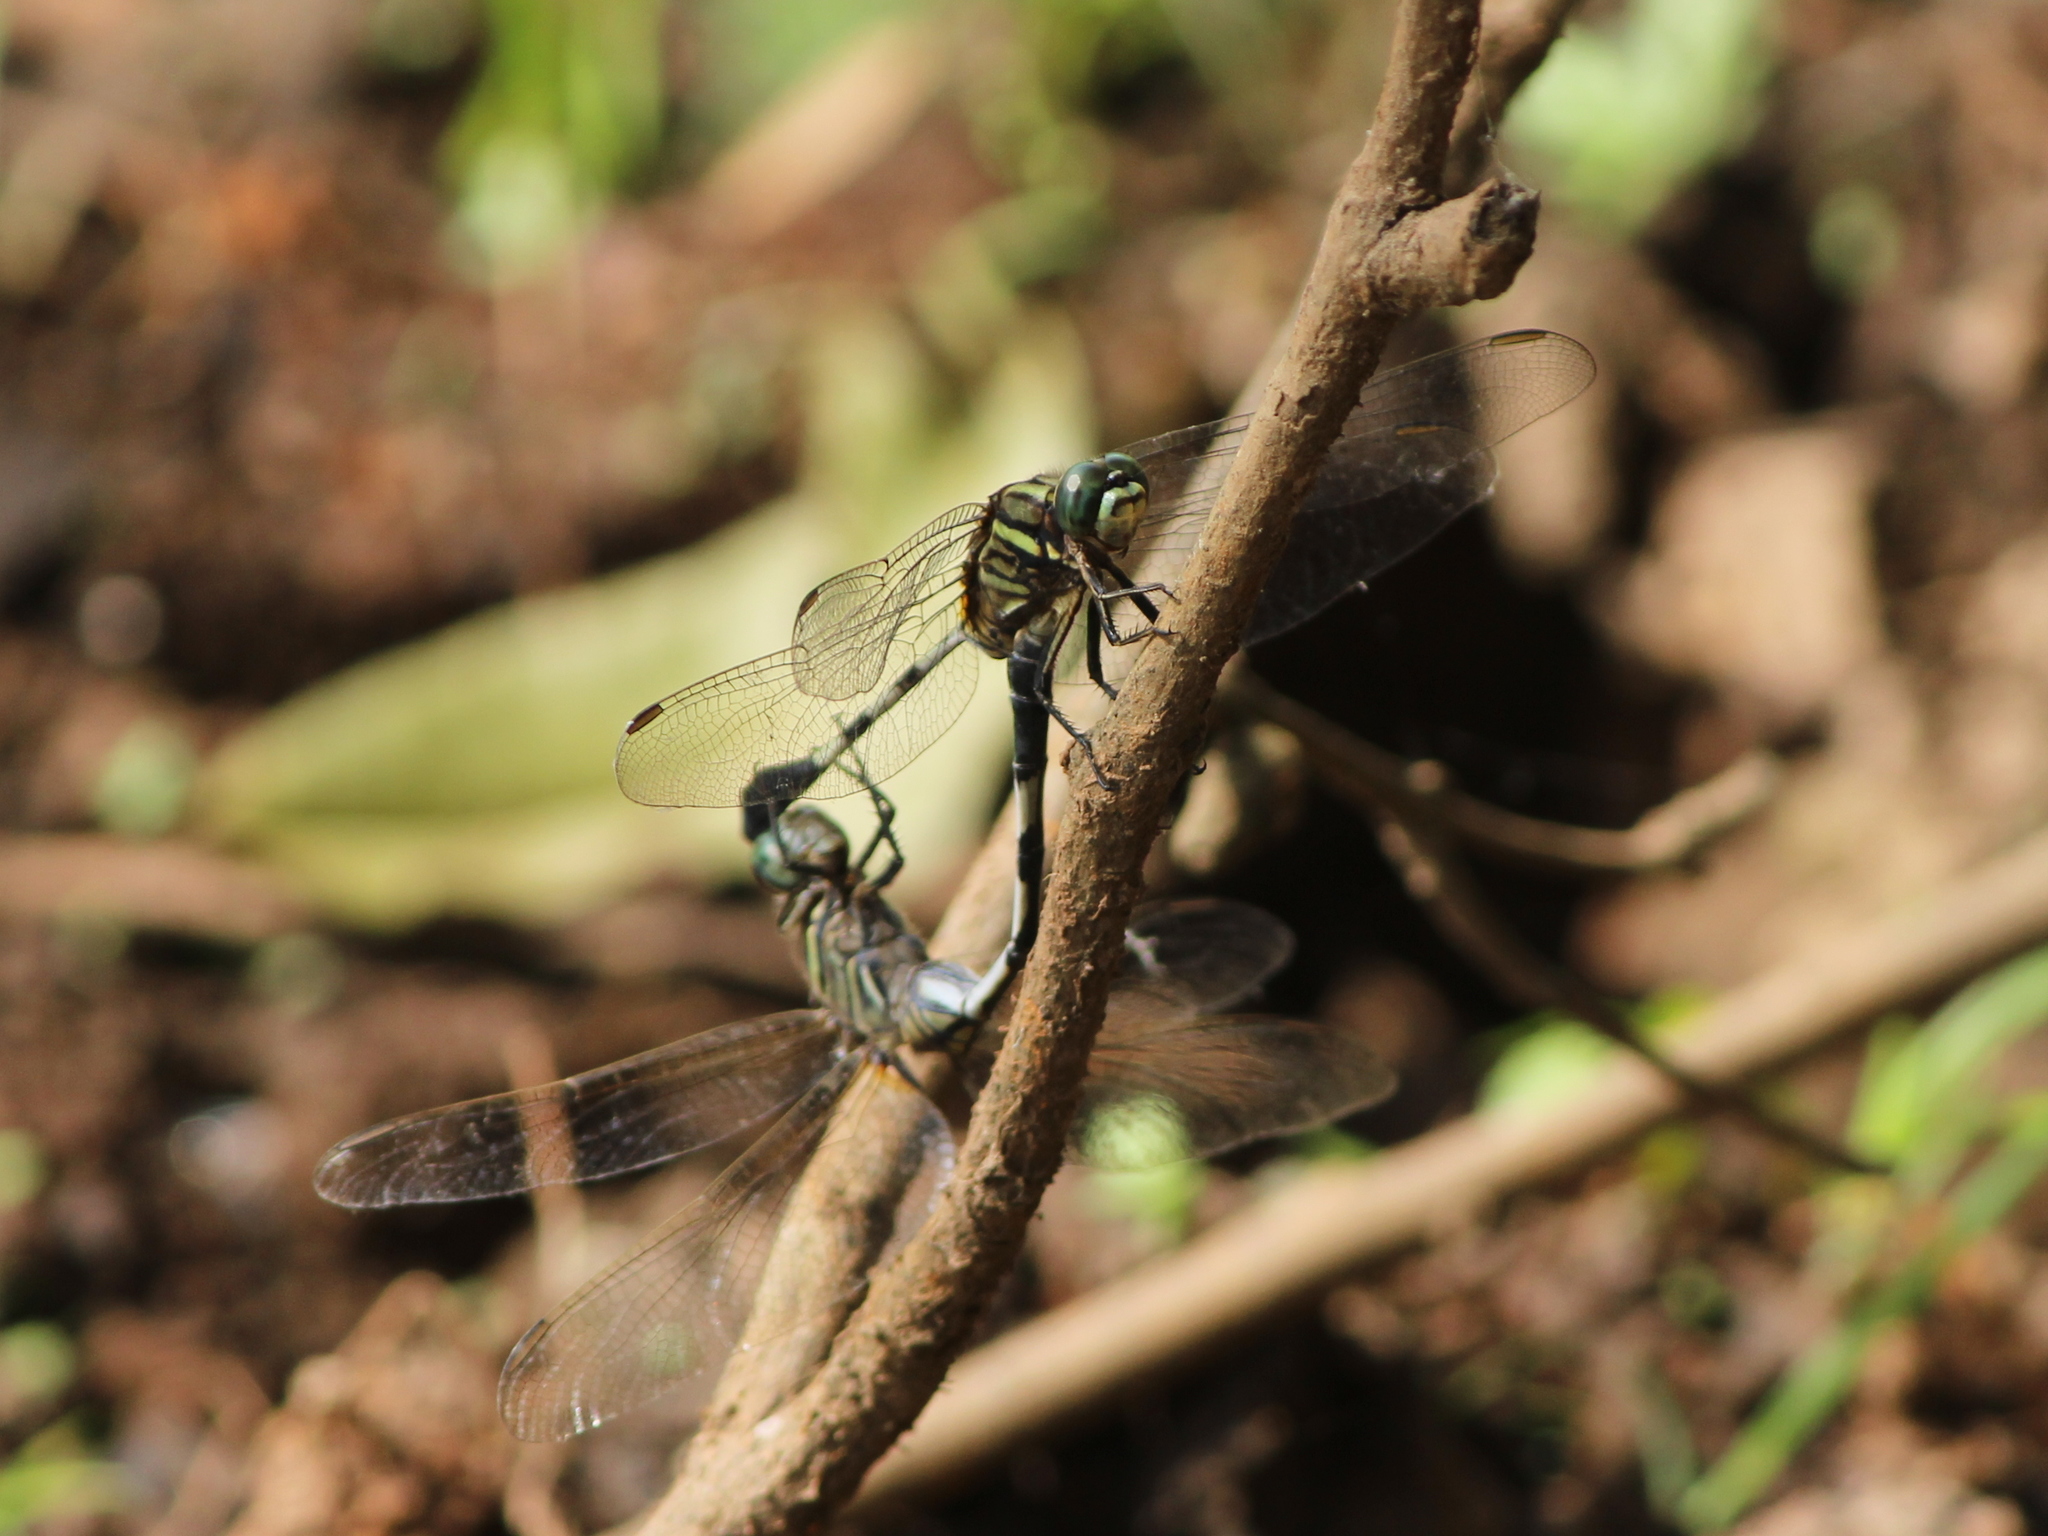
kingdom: Animalia
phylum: Arthropoda
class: Insecta
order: Odonata
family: Libellulidae
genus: Orthetrum
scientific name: Orthetrum sabina
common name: Slender skimmer
